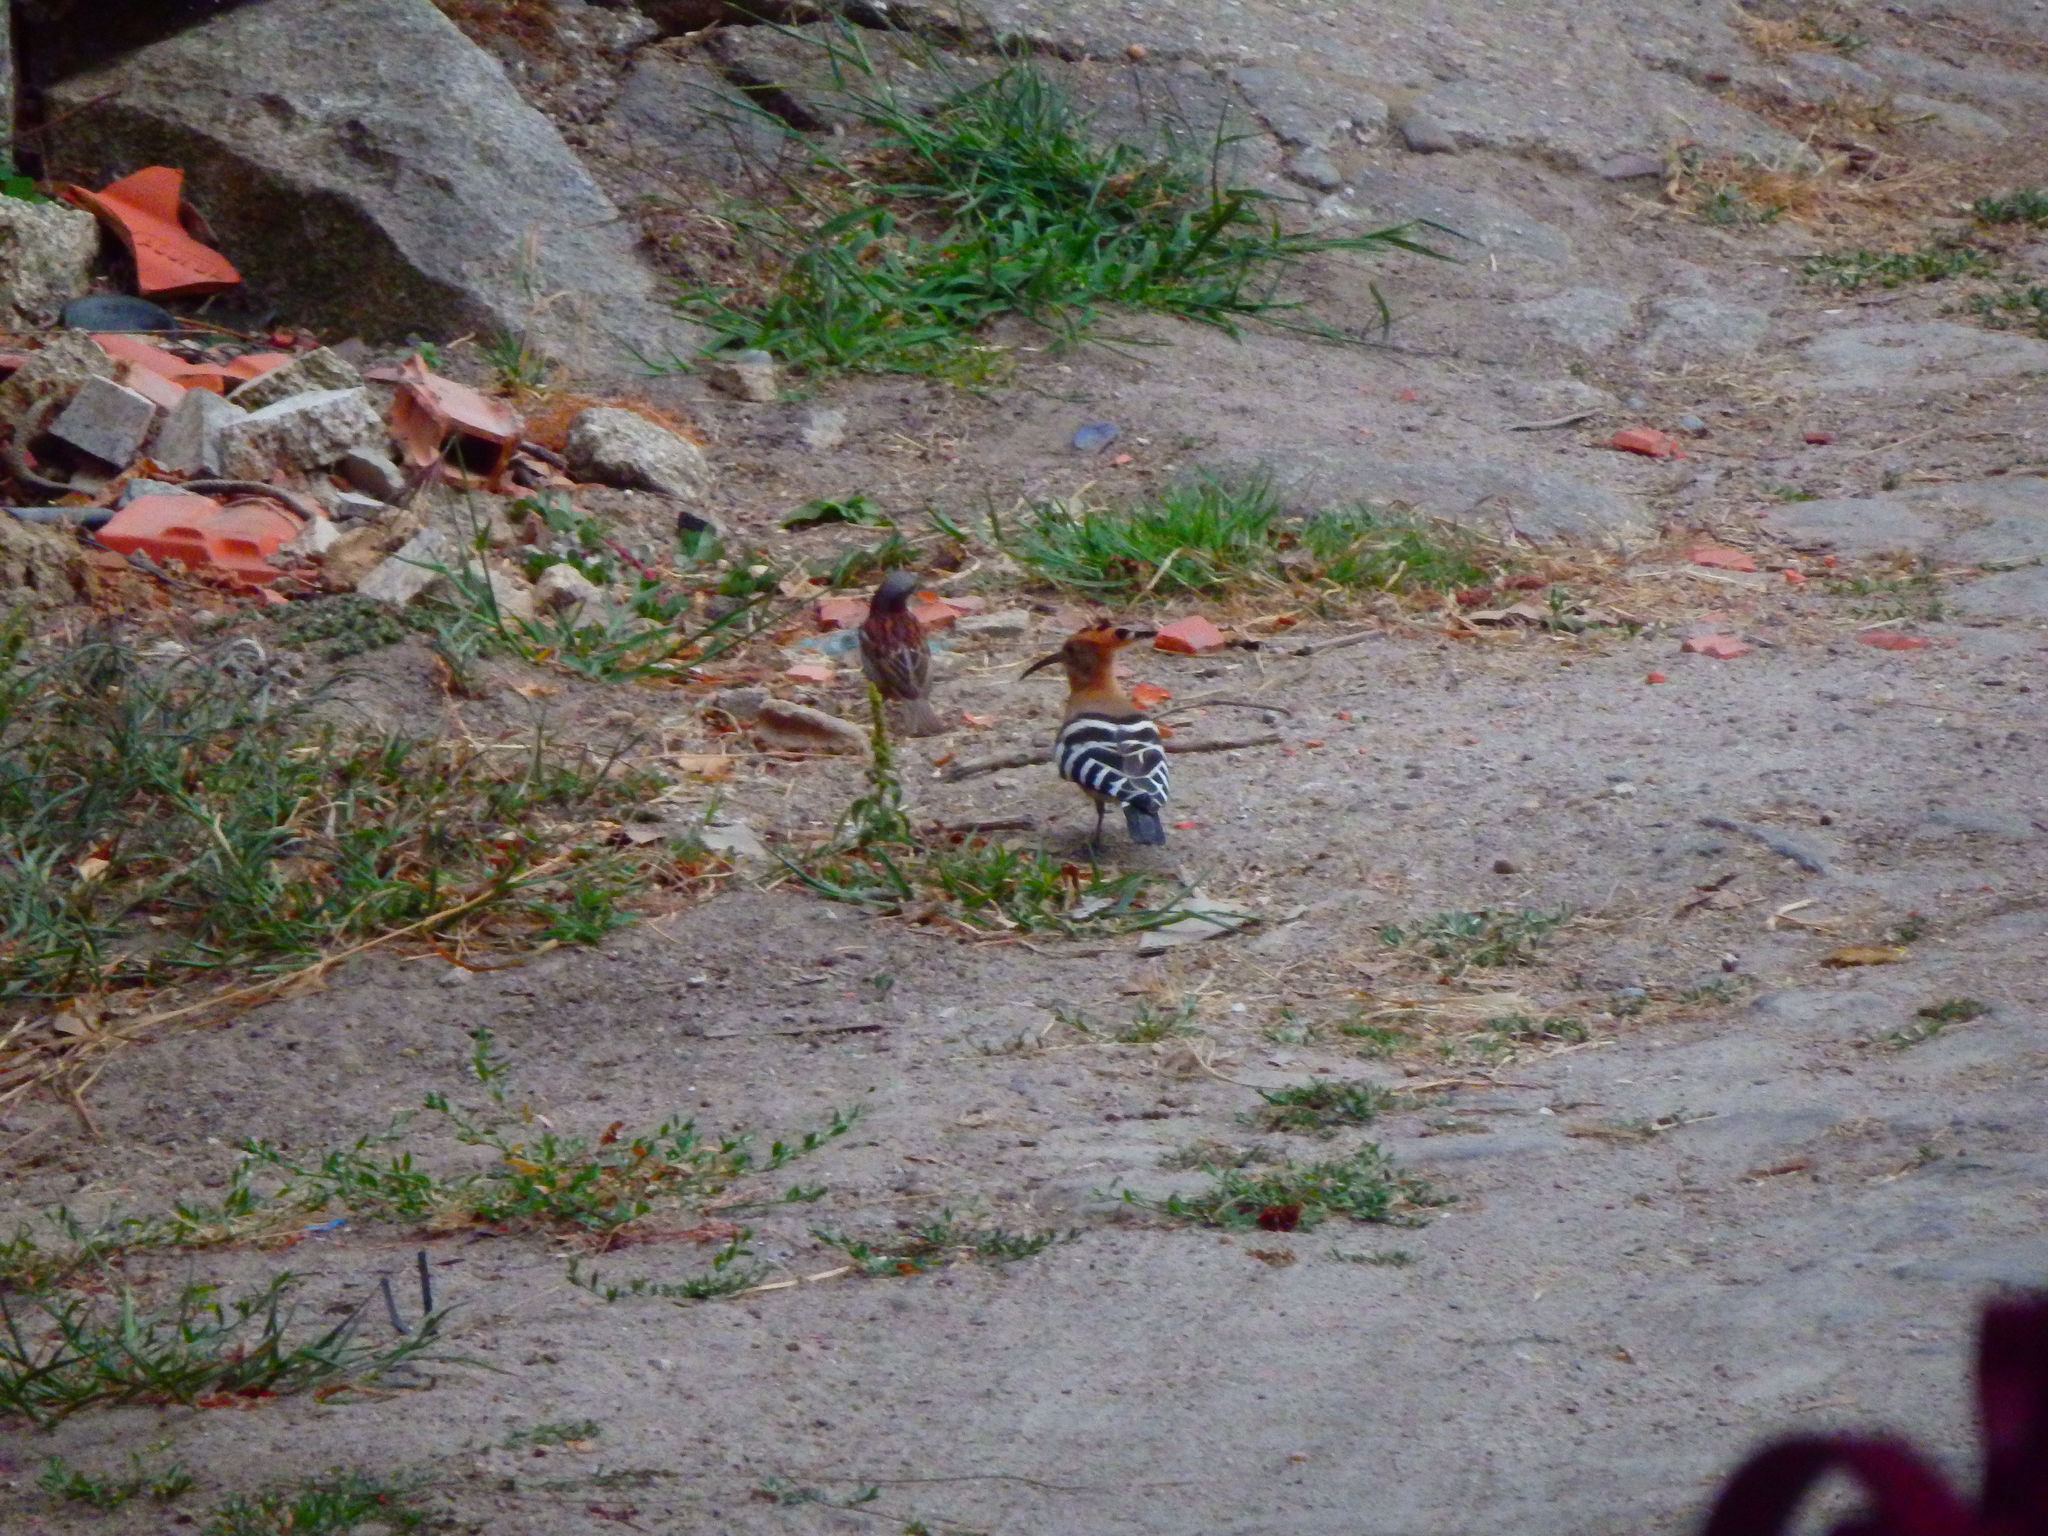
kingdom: Animalia
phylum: Chordata
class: Aves
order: Bucerotiformes
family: Upupidae
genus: Upupa
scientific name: Upupa epops
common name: Eurasian hoopoe
